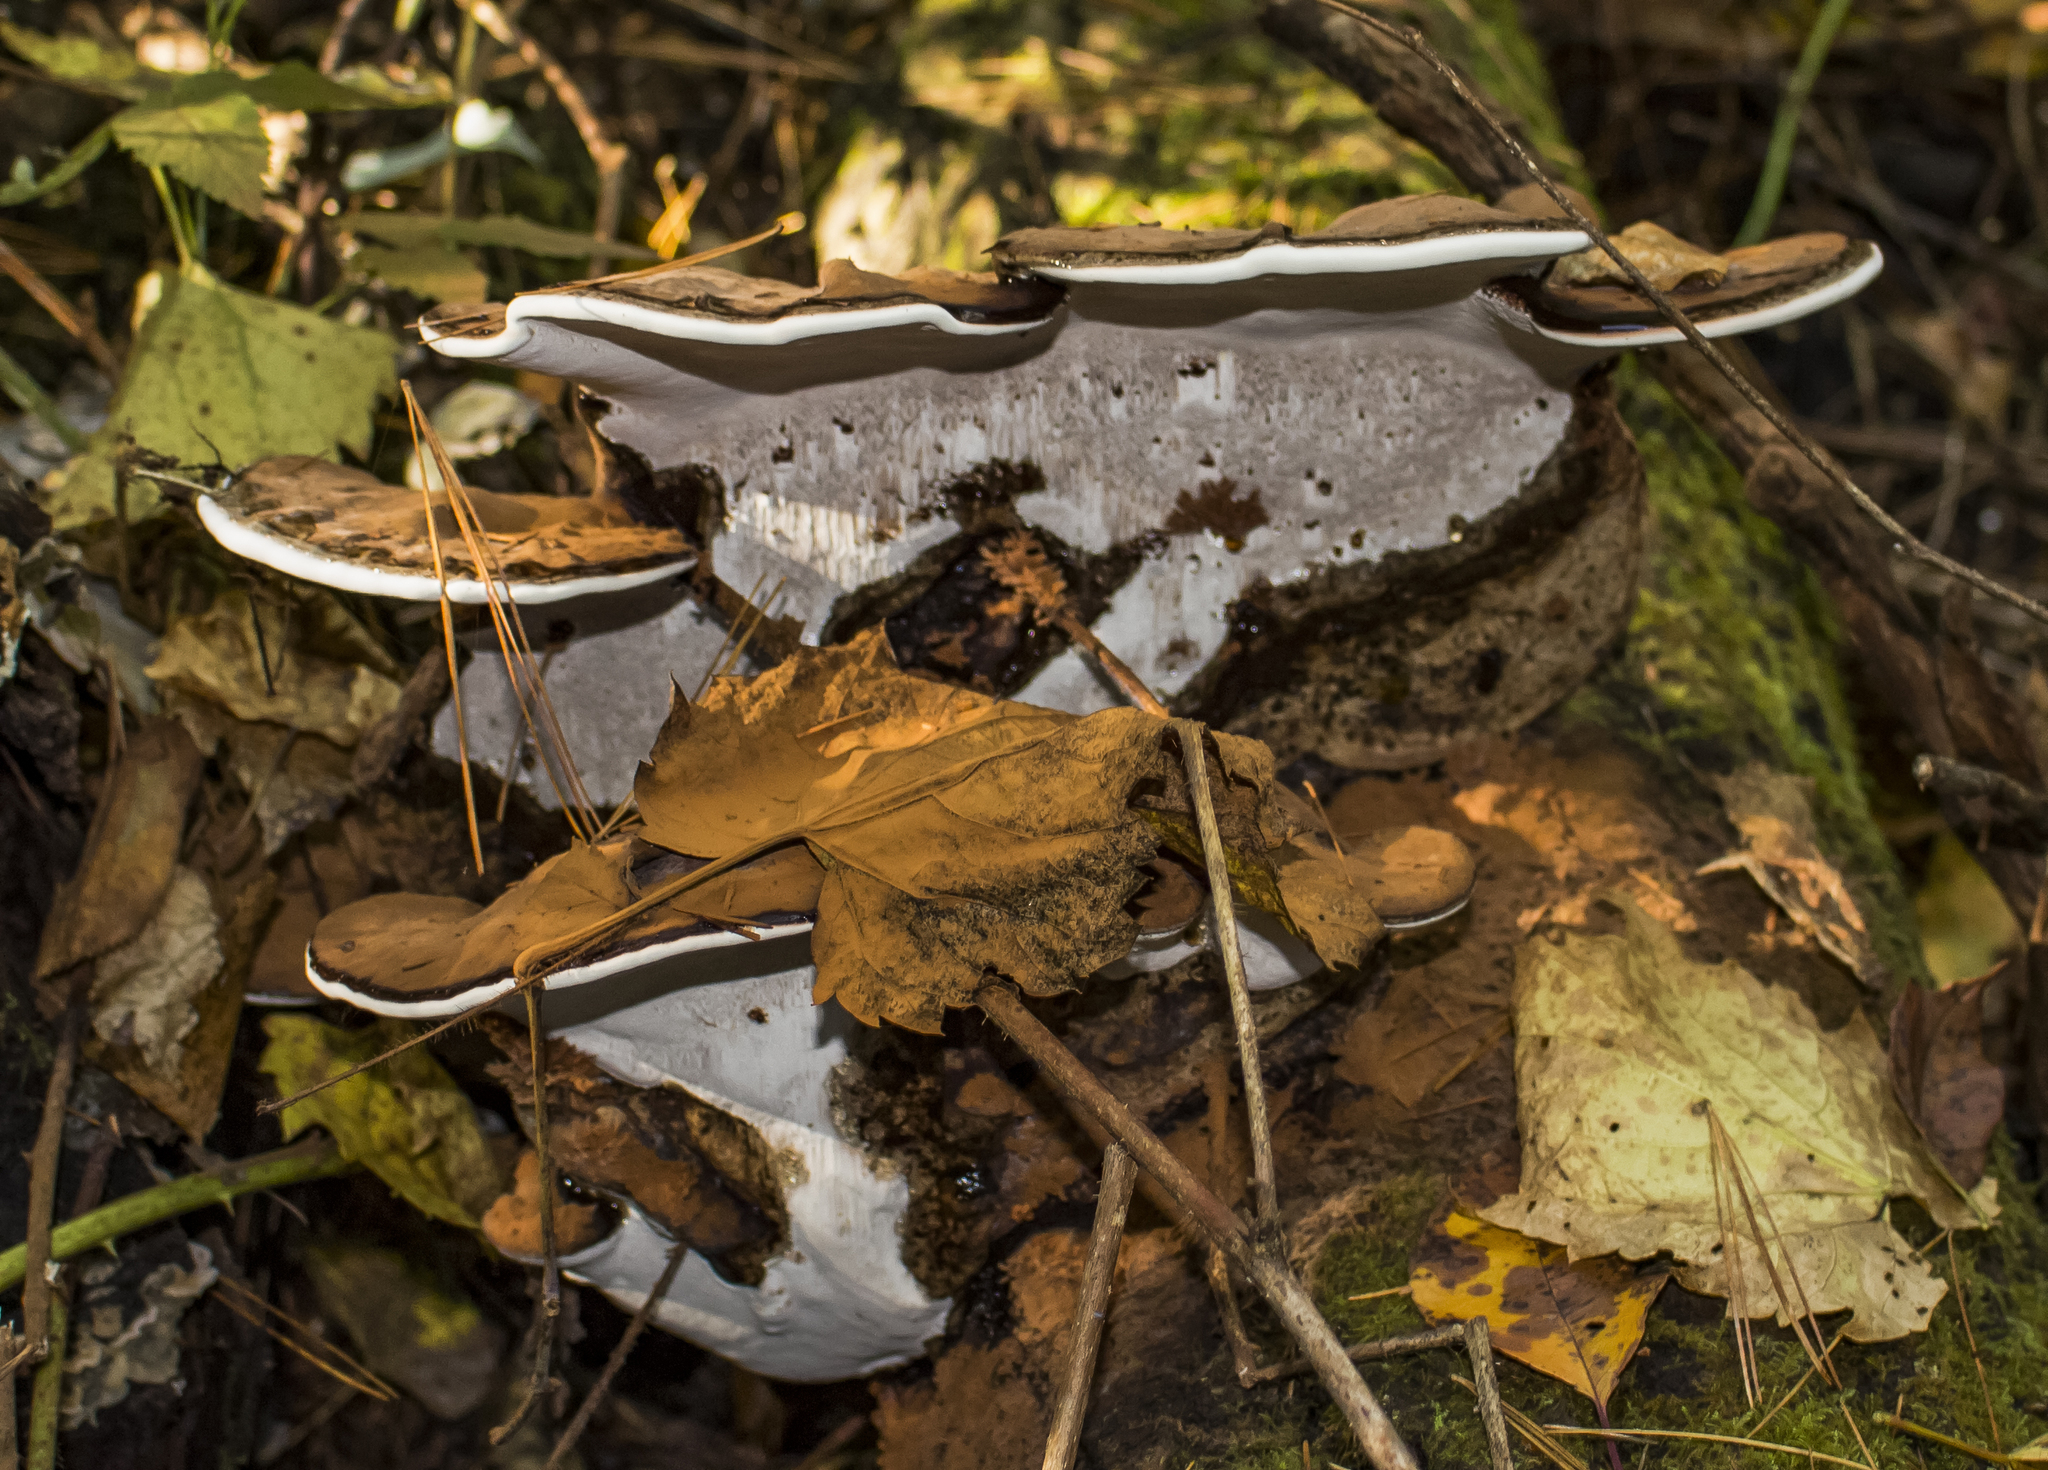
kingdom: Fungi
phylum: Basidiomycota
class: Agaricomycetes
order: Polyporales
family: Polyporaceae
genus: Ganoderma
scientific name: Ganoderma applanatum
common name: Artist's bracket
